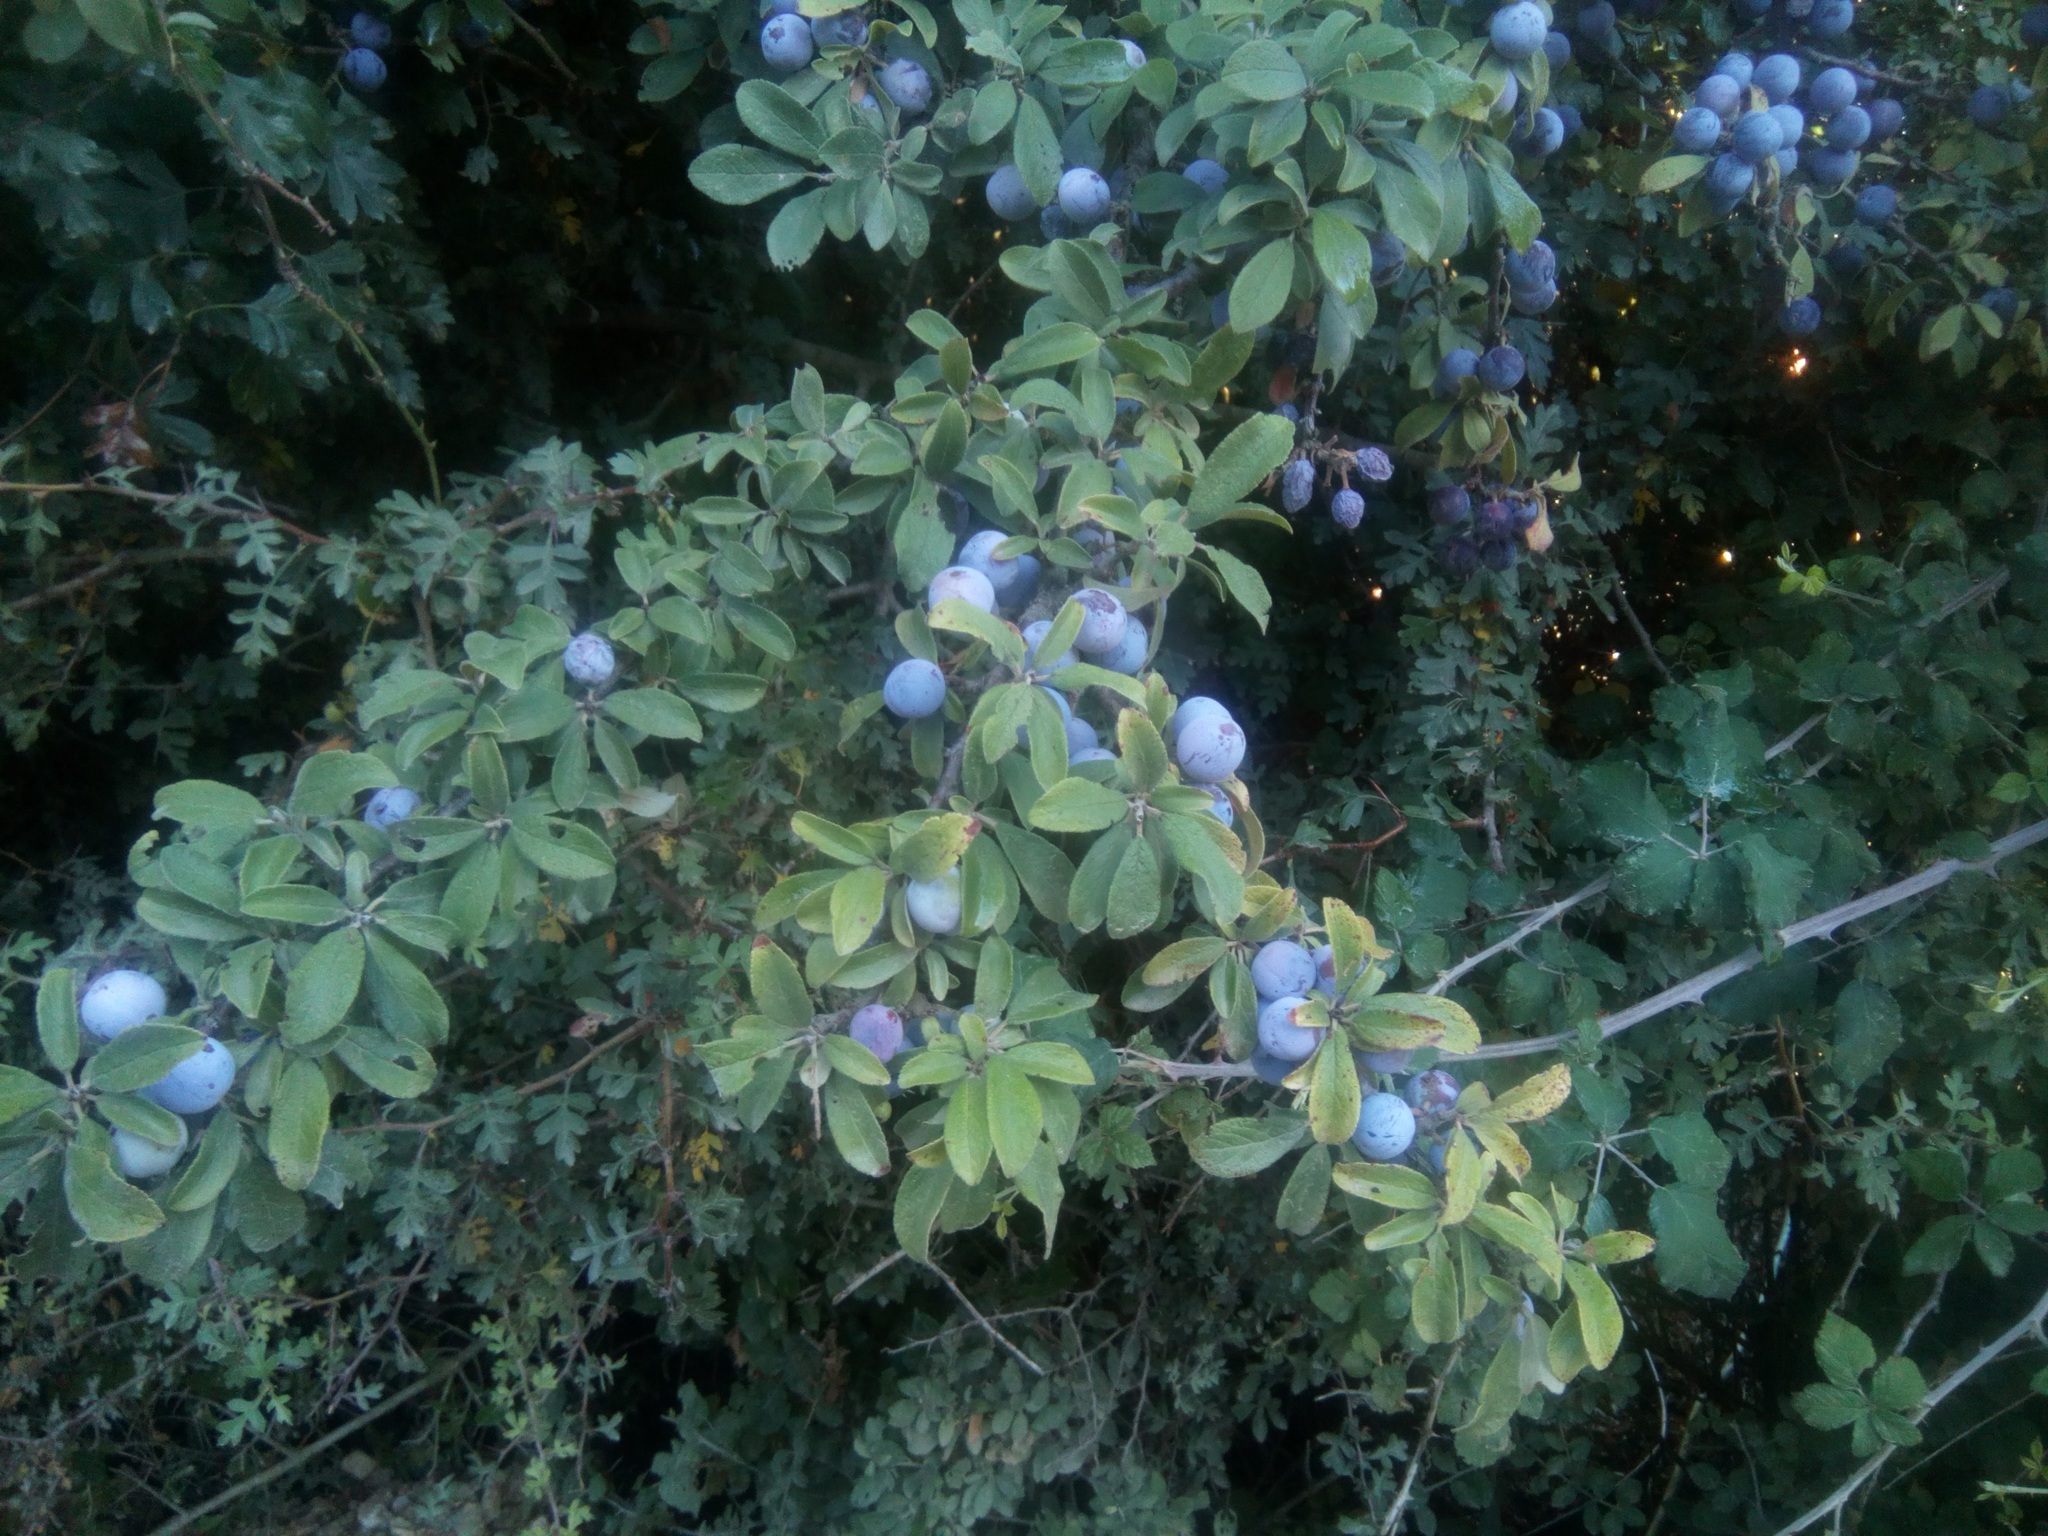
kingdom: Plantae
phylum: Tracheophyta
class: Magnoliopsida
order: Rosales
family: Rosaceae
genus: Prunus
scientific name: Prunus spinosa
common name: Blackthorn
